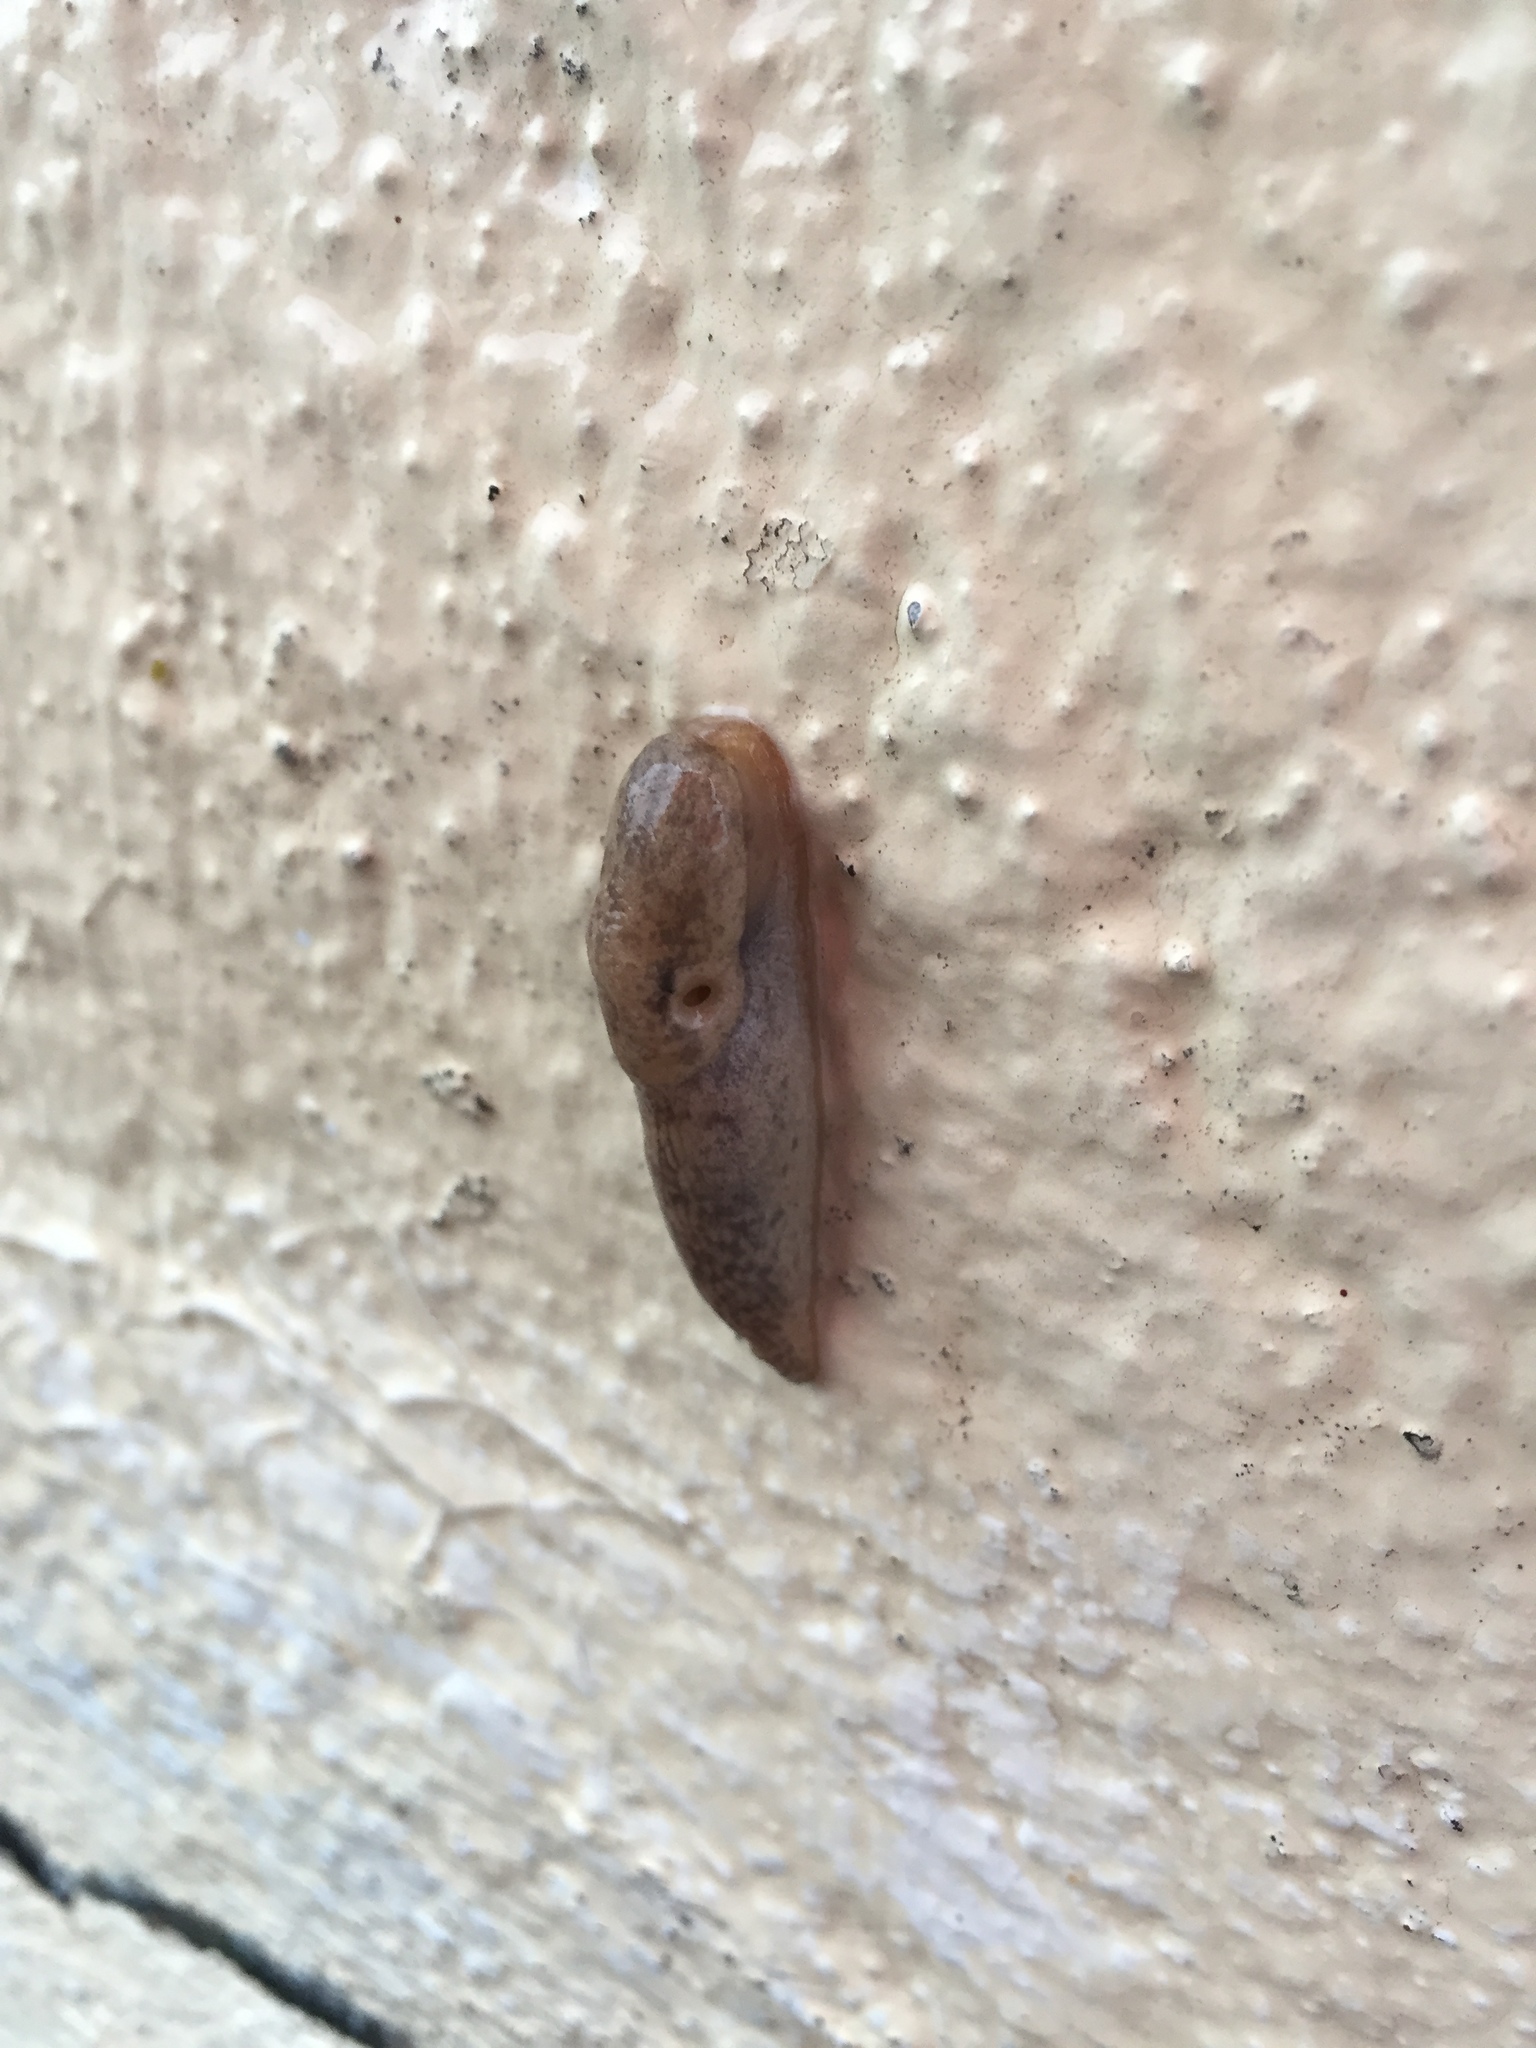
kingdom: Animalia
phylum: Mollusca
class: Gastropoda
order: Stylommatophora
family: Agriolimacidae
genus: Deroceras
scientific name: Deroceras reticulatum
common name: Gray field slug
